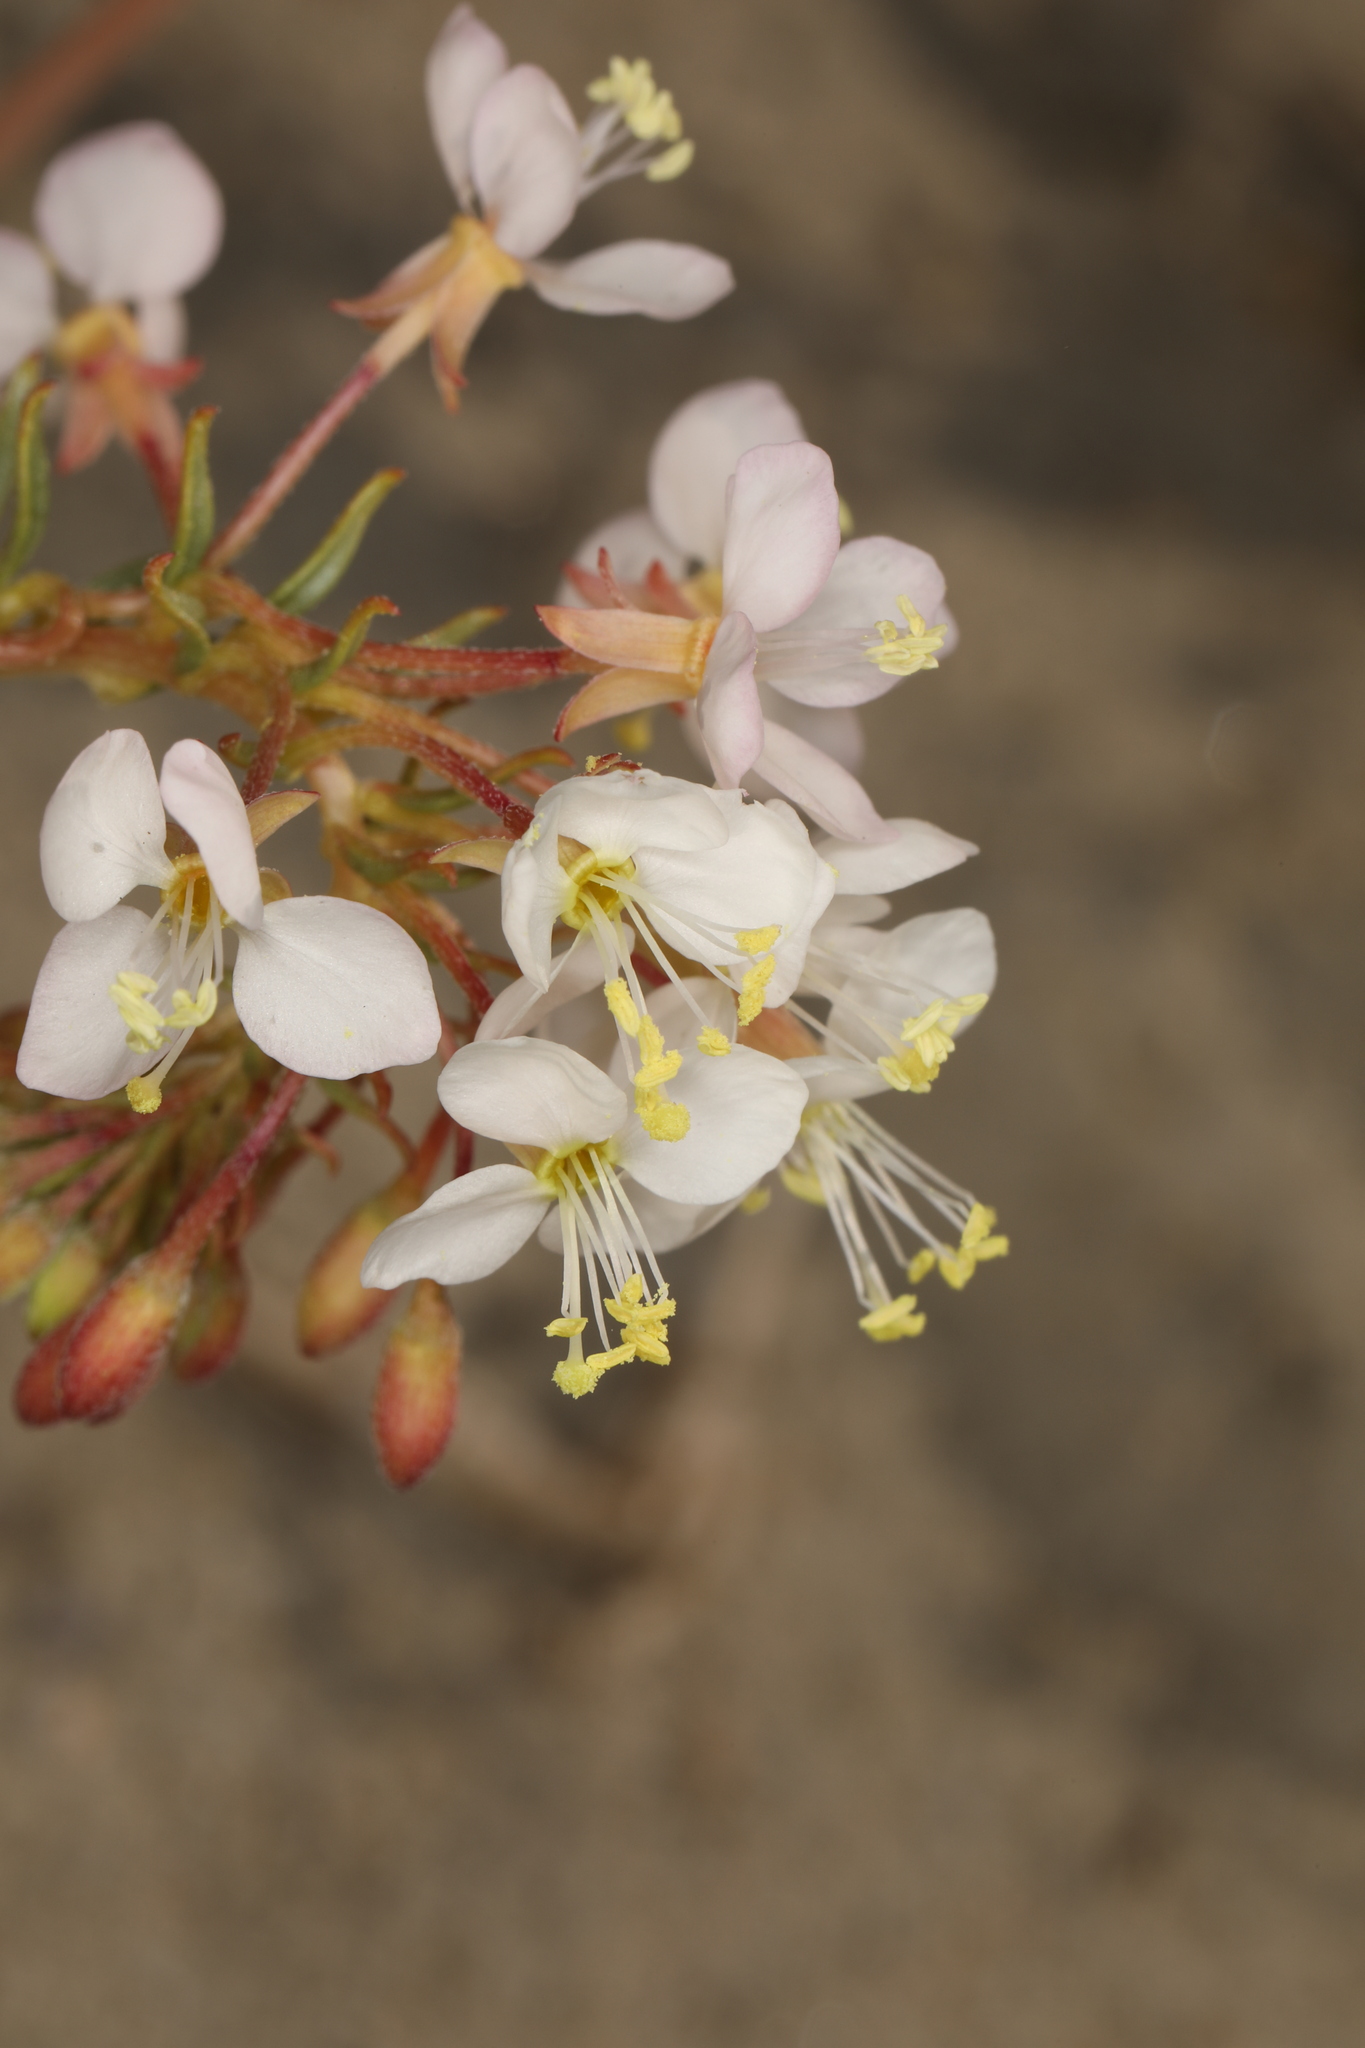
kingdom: Plantae
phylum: Tracheophyta
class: Magnoliopsida
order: Myrtales
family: Onagraceae
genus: Eremothera
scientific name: Eremothera boothii
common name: Booth's evening primrose
